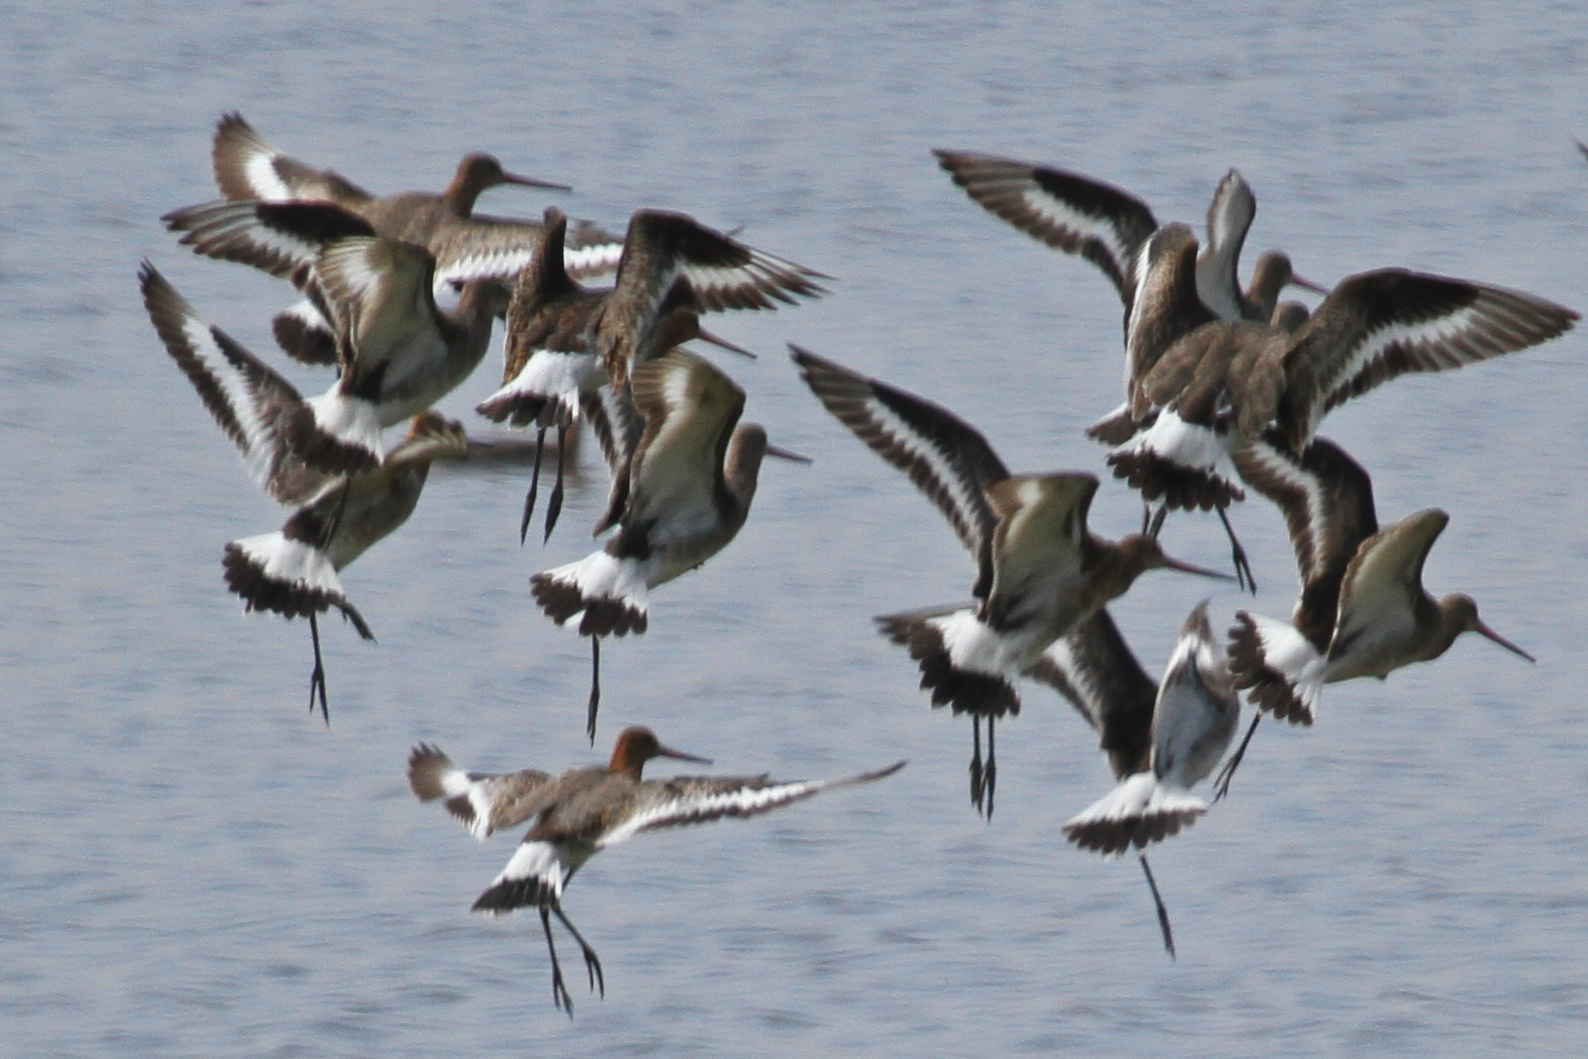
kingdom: Animalia
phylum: Chordata
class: Aves
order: Charadriiformes
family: Scolopacidae
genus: Limosa
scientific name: Limosa limosa
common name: Black-tailed godwit
